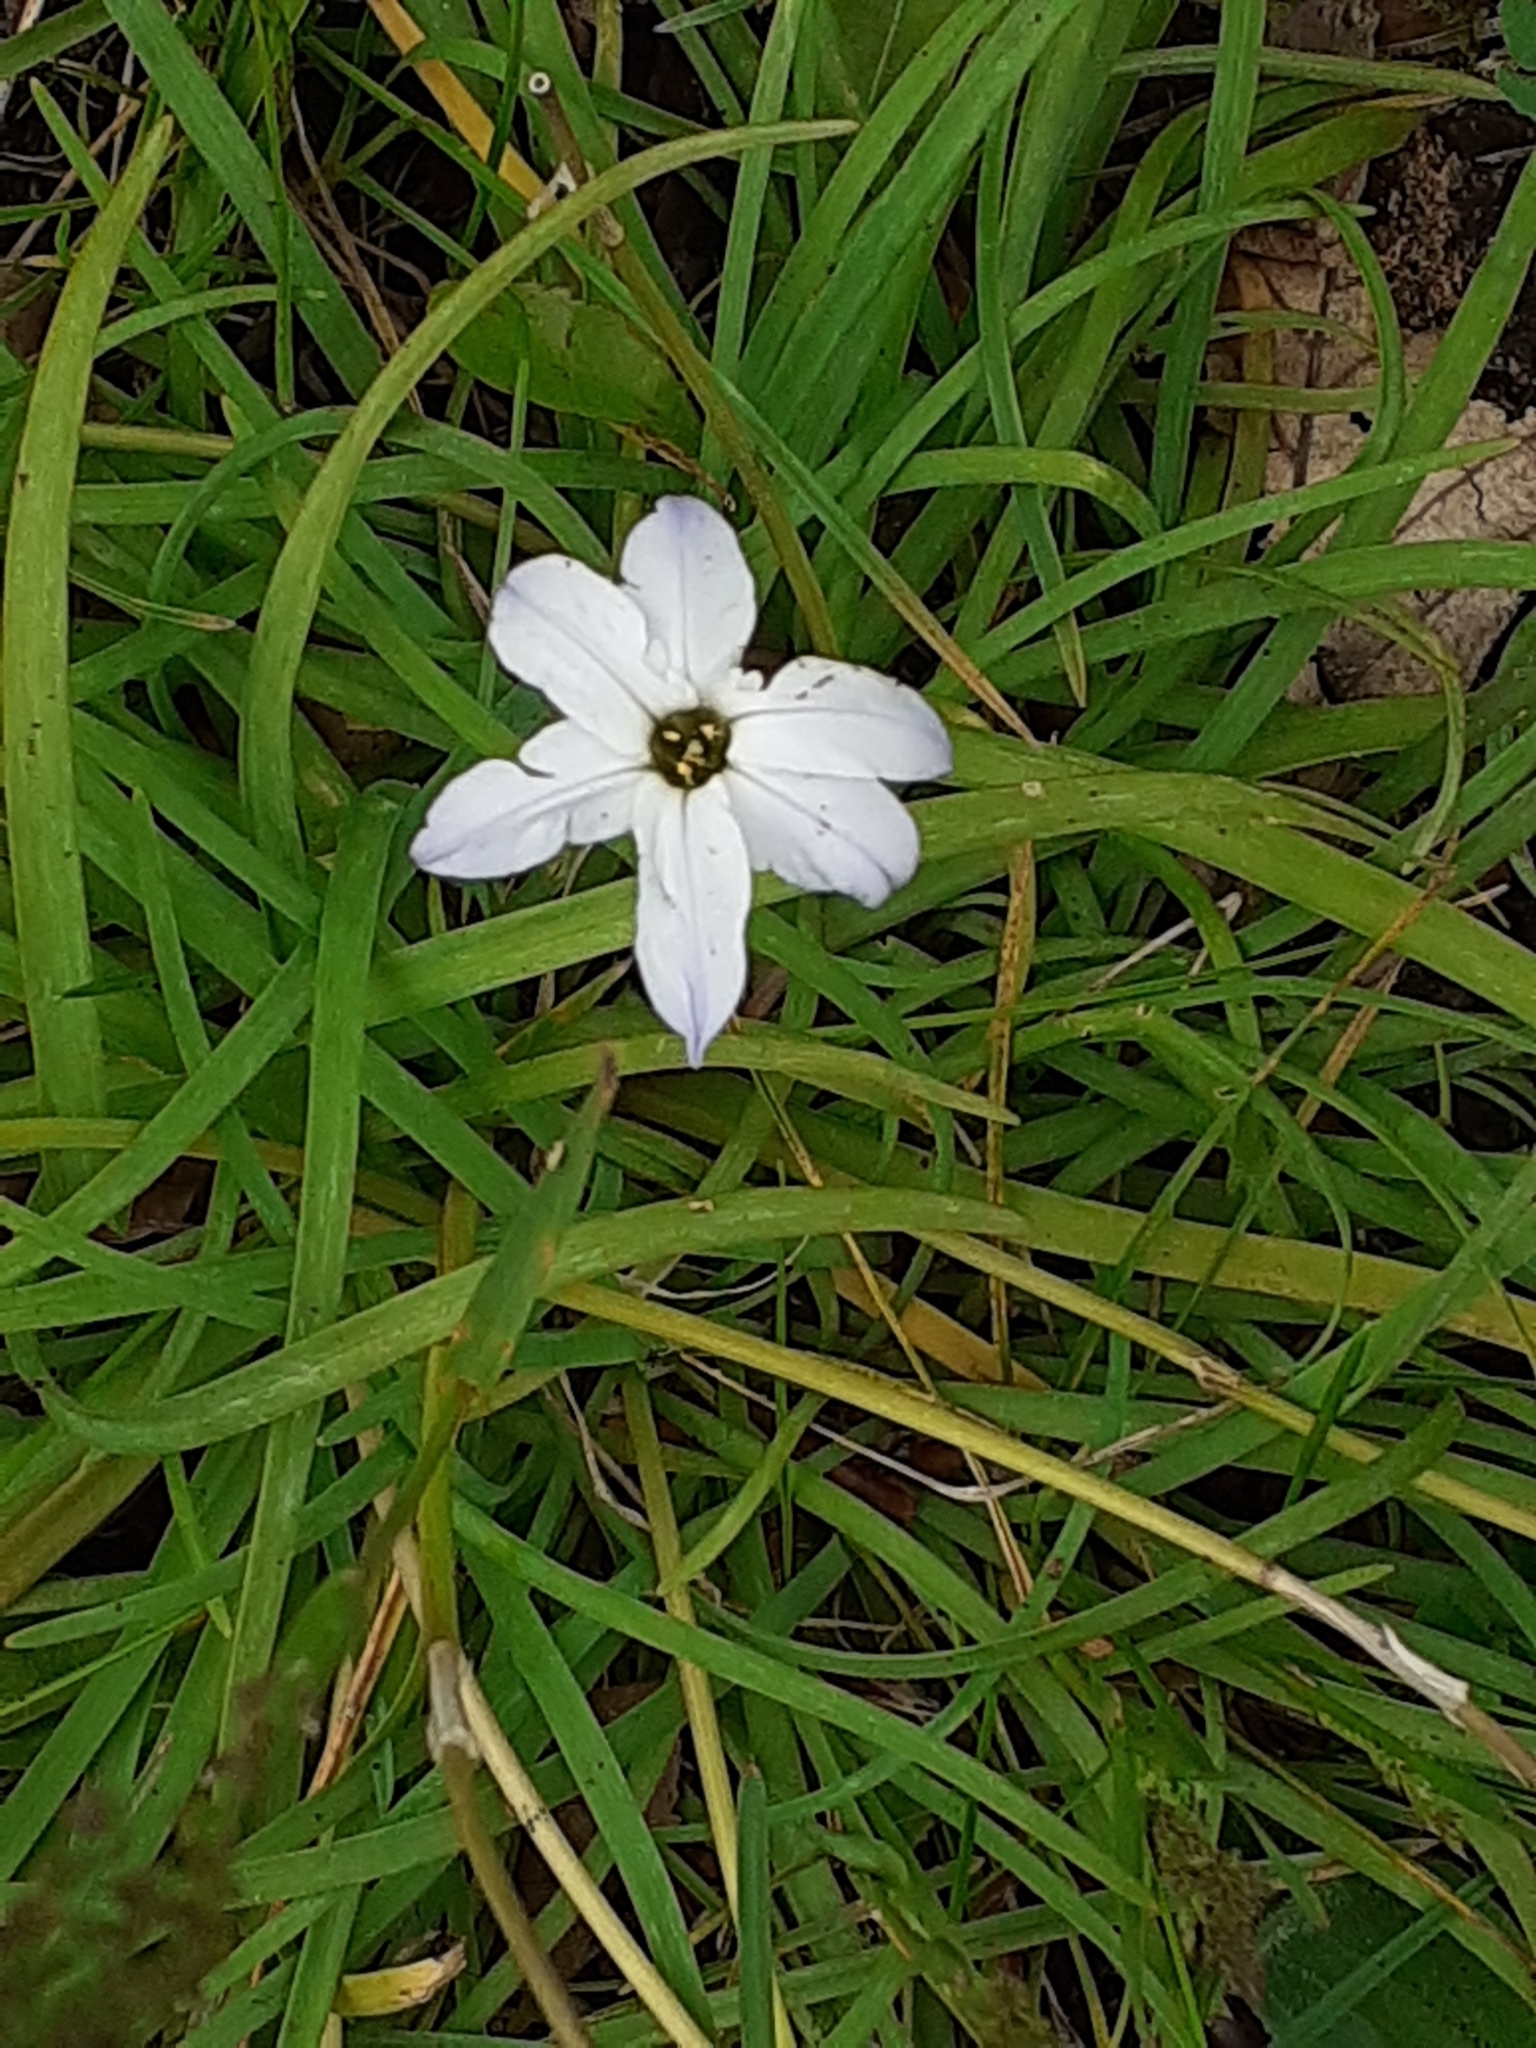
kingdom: Plantae
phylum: Tracheophyta
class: Liliopsida
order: Asparagales
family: Amaryllidaceae
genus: Ipheion
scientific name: Ipheion uniflorum
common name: Spring starflower
